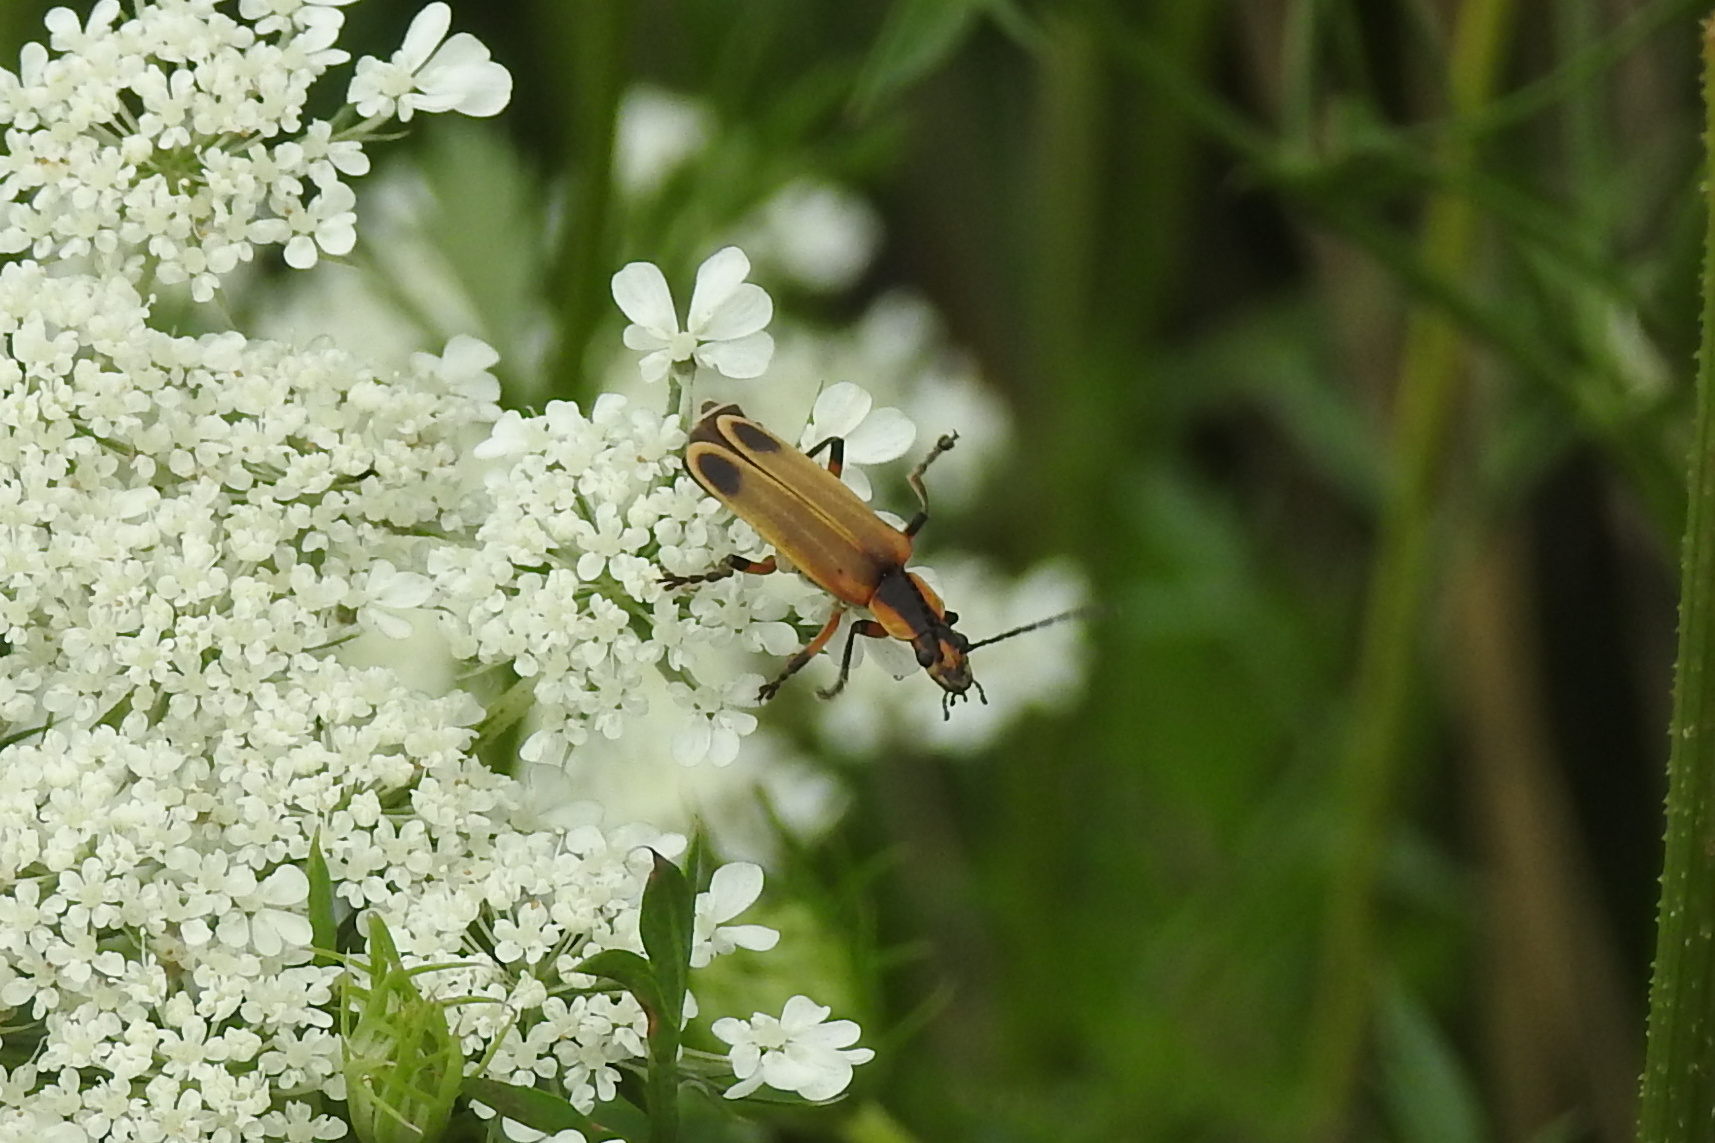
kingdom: Animalia
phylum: Arthropoda
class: Insecta
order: Coleoptera
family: Cantharidae
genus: Chauliognathus
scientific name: Chauliognathus marginatus
